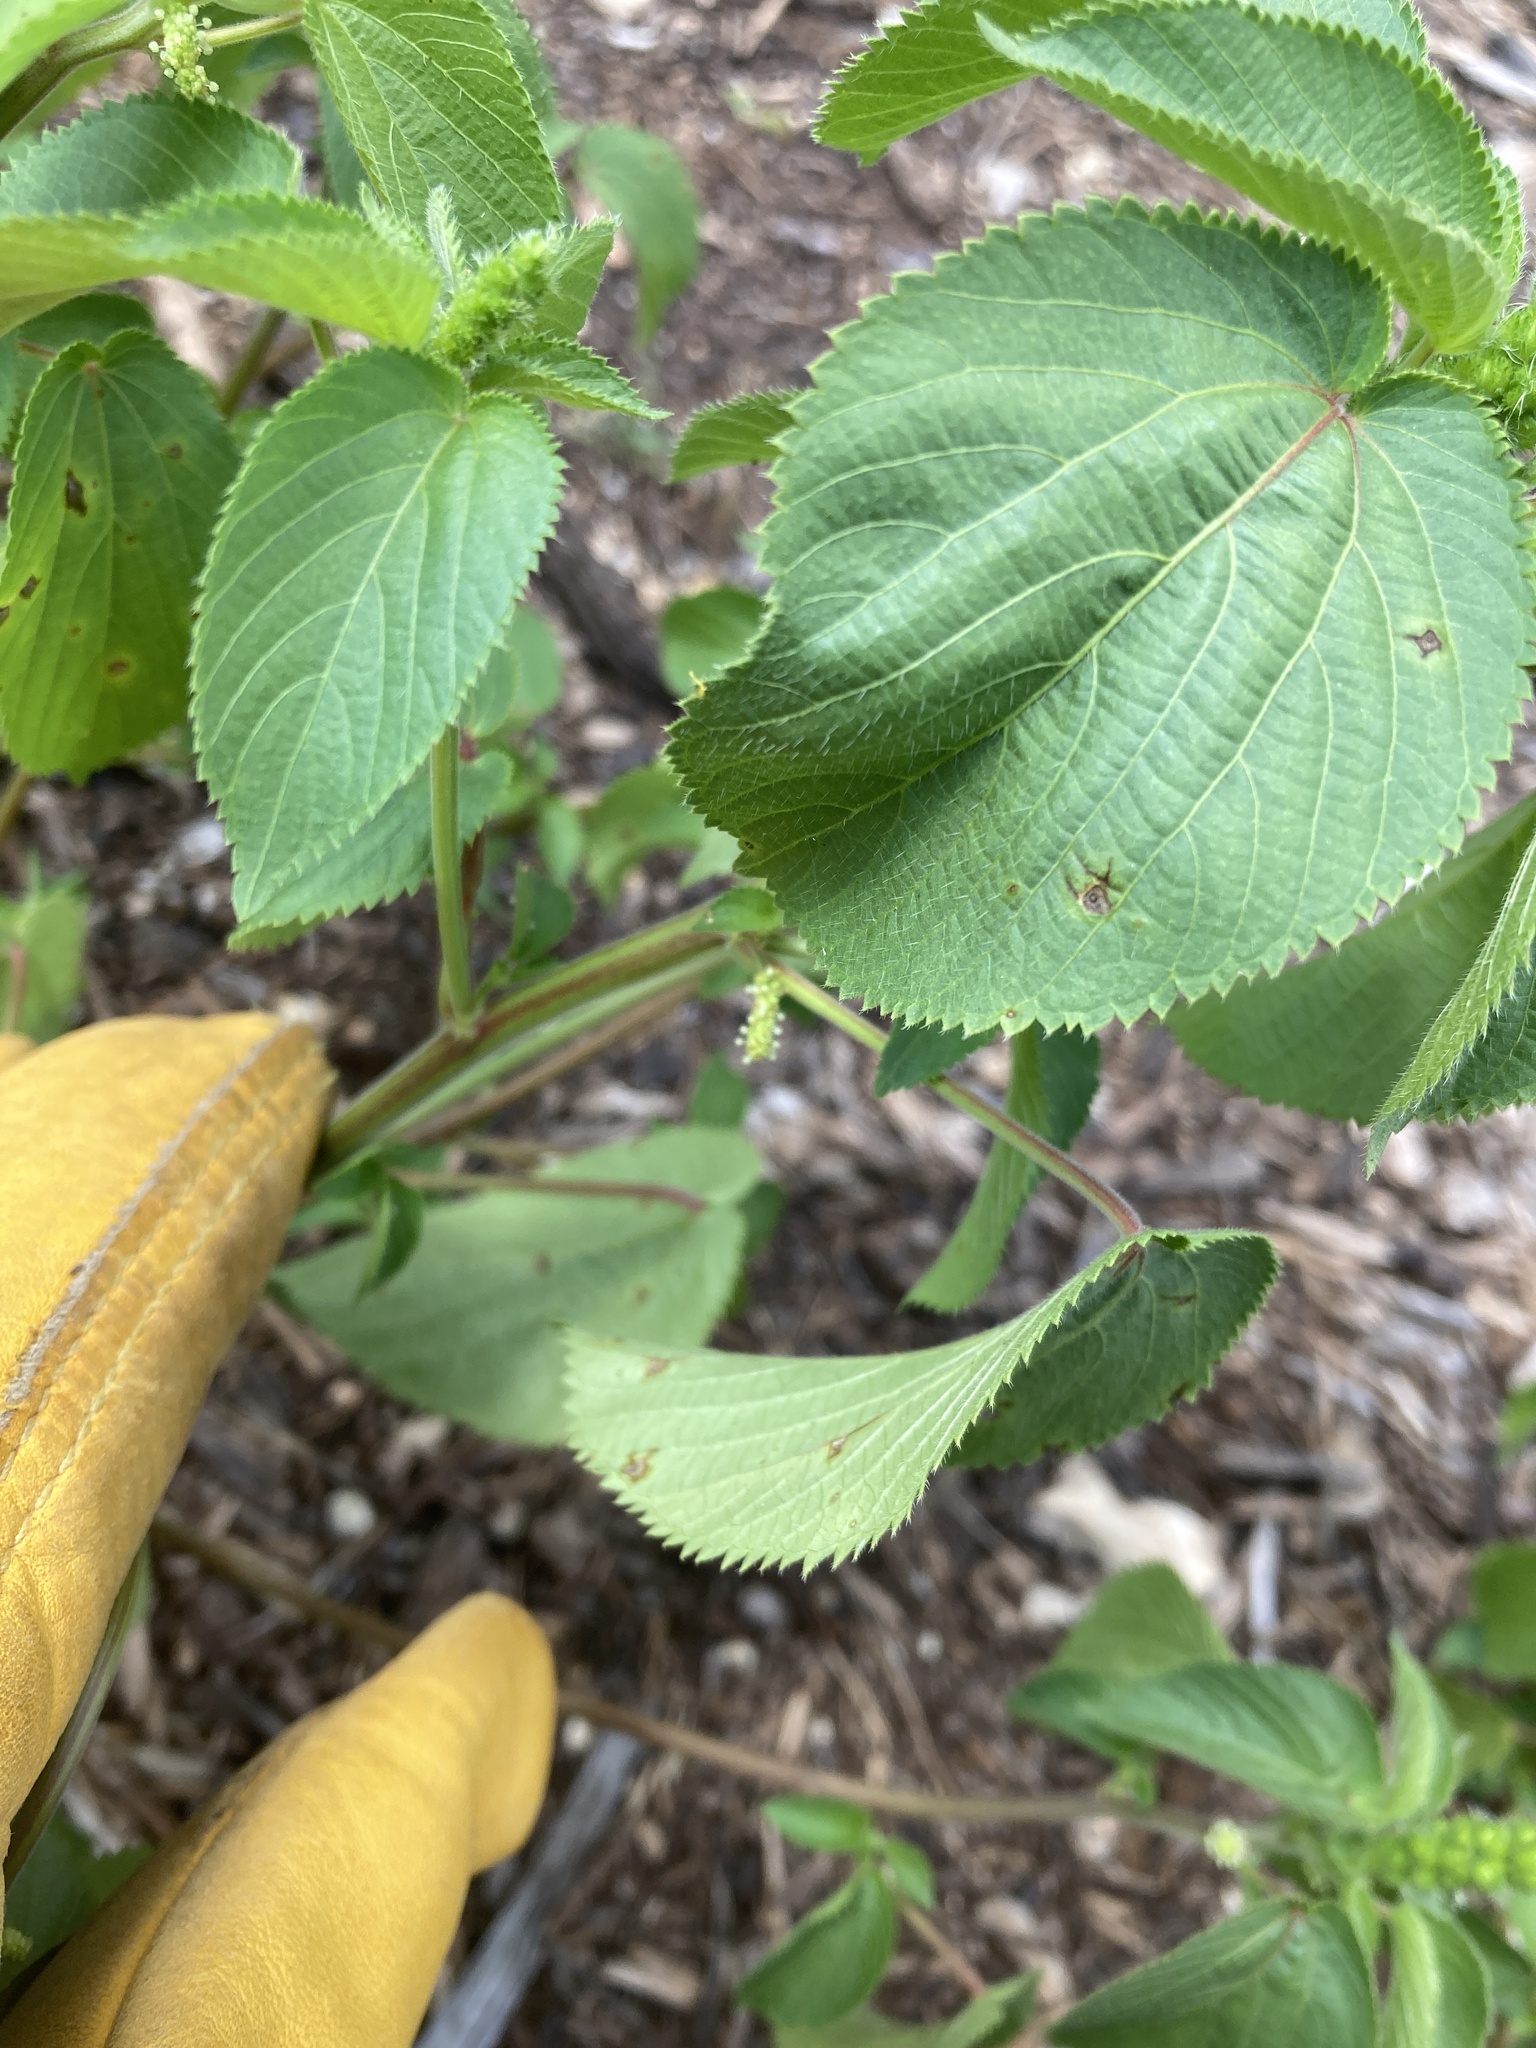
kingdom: Plantae
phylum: Tracheophyta
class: Magnoliopsida
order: Malpighiales
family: Euphorbiaceae
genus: Acalypha
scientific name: Acalypha ostryifolia
